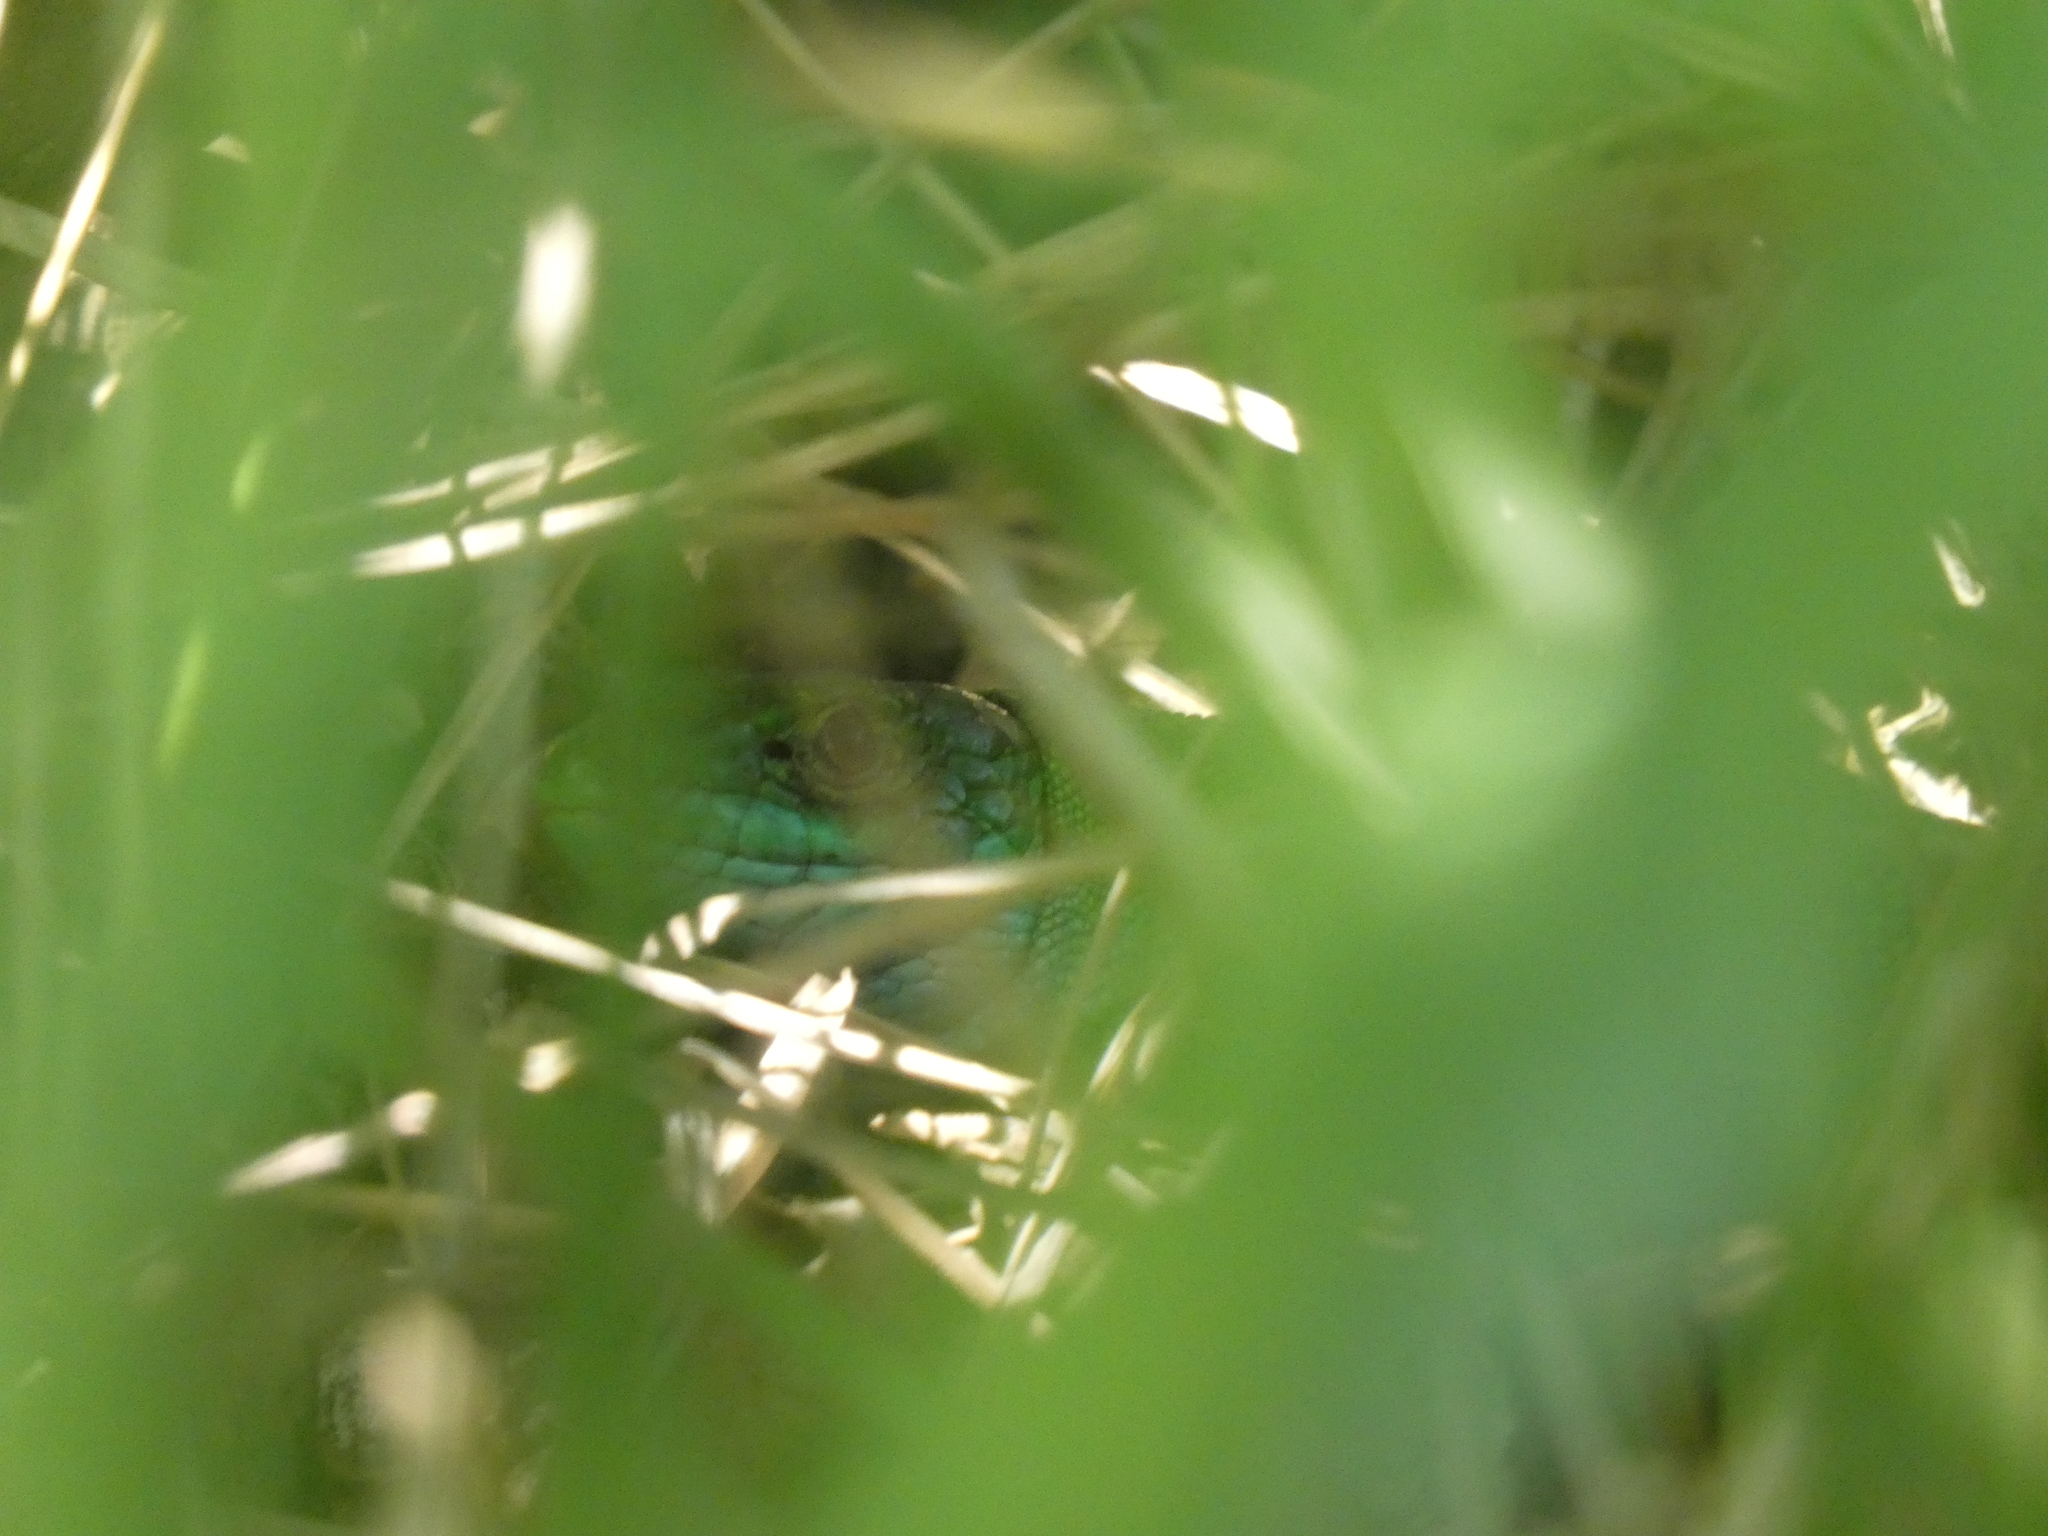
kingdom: Animalia
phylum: Chordata
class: Squamata
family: Lacertidae
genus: Lacerta
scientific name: Lacerta bilineata
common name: Western green lizard
